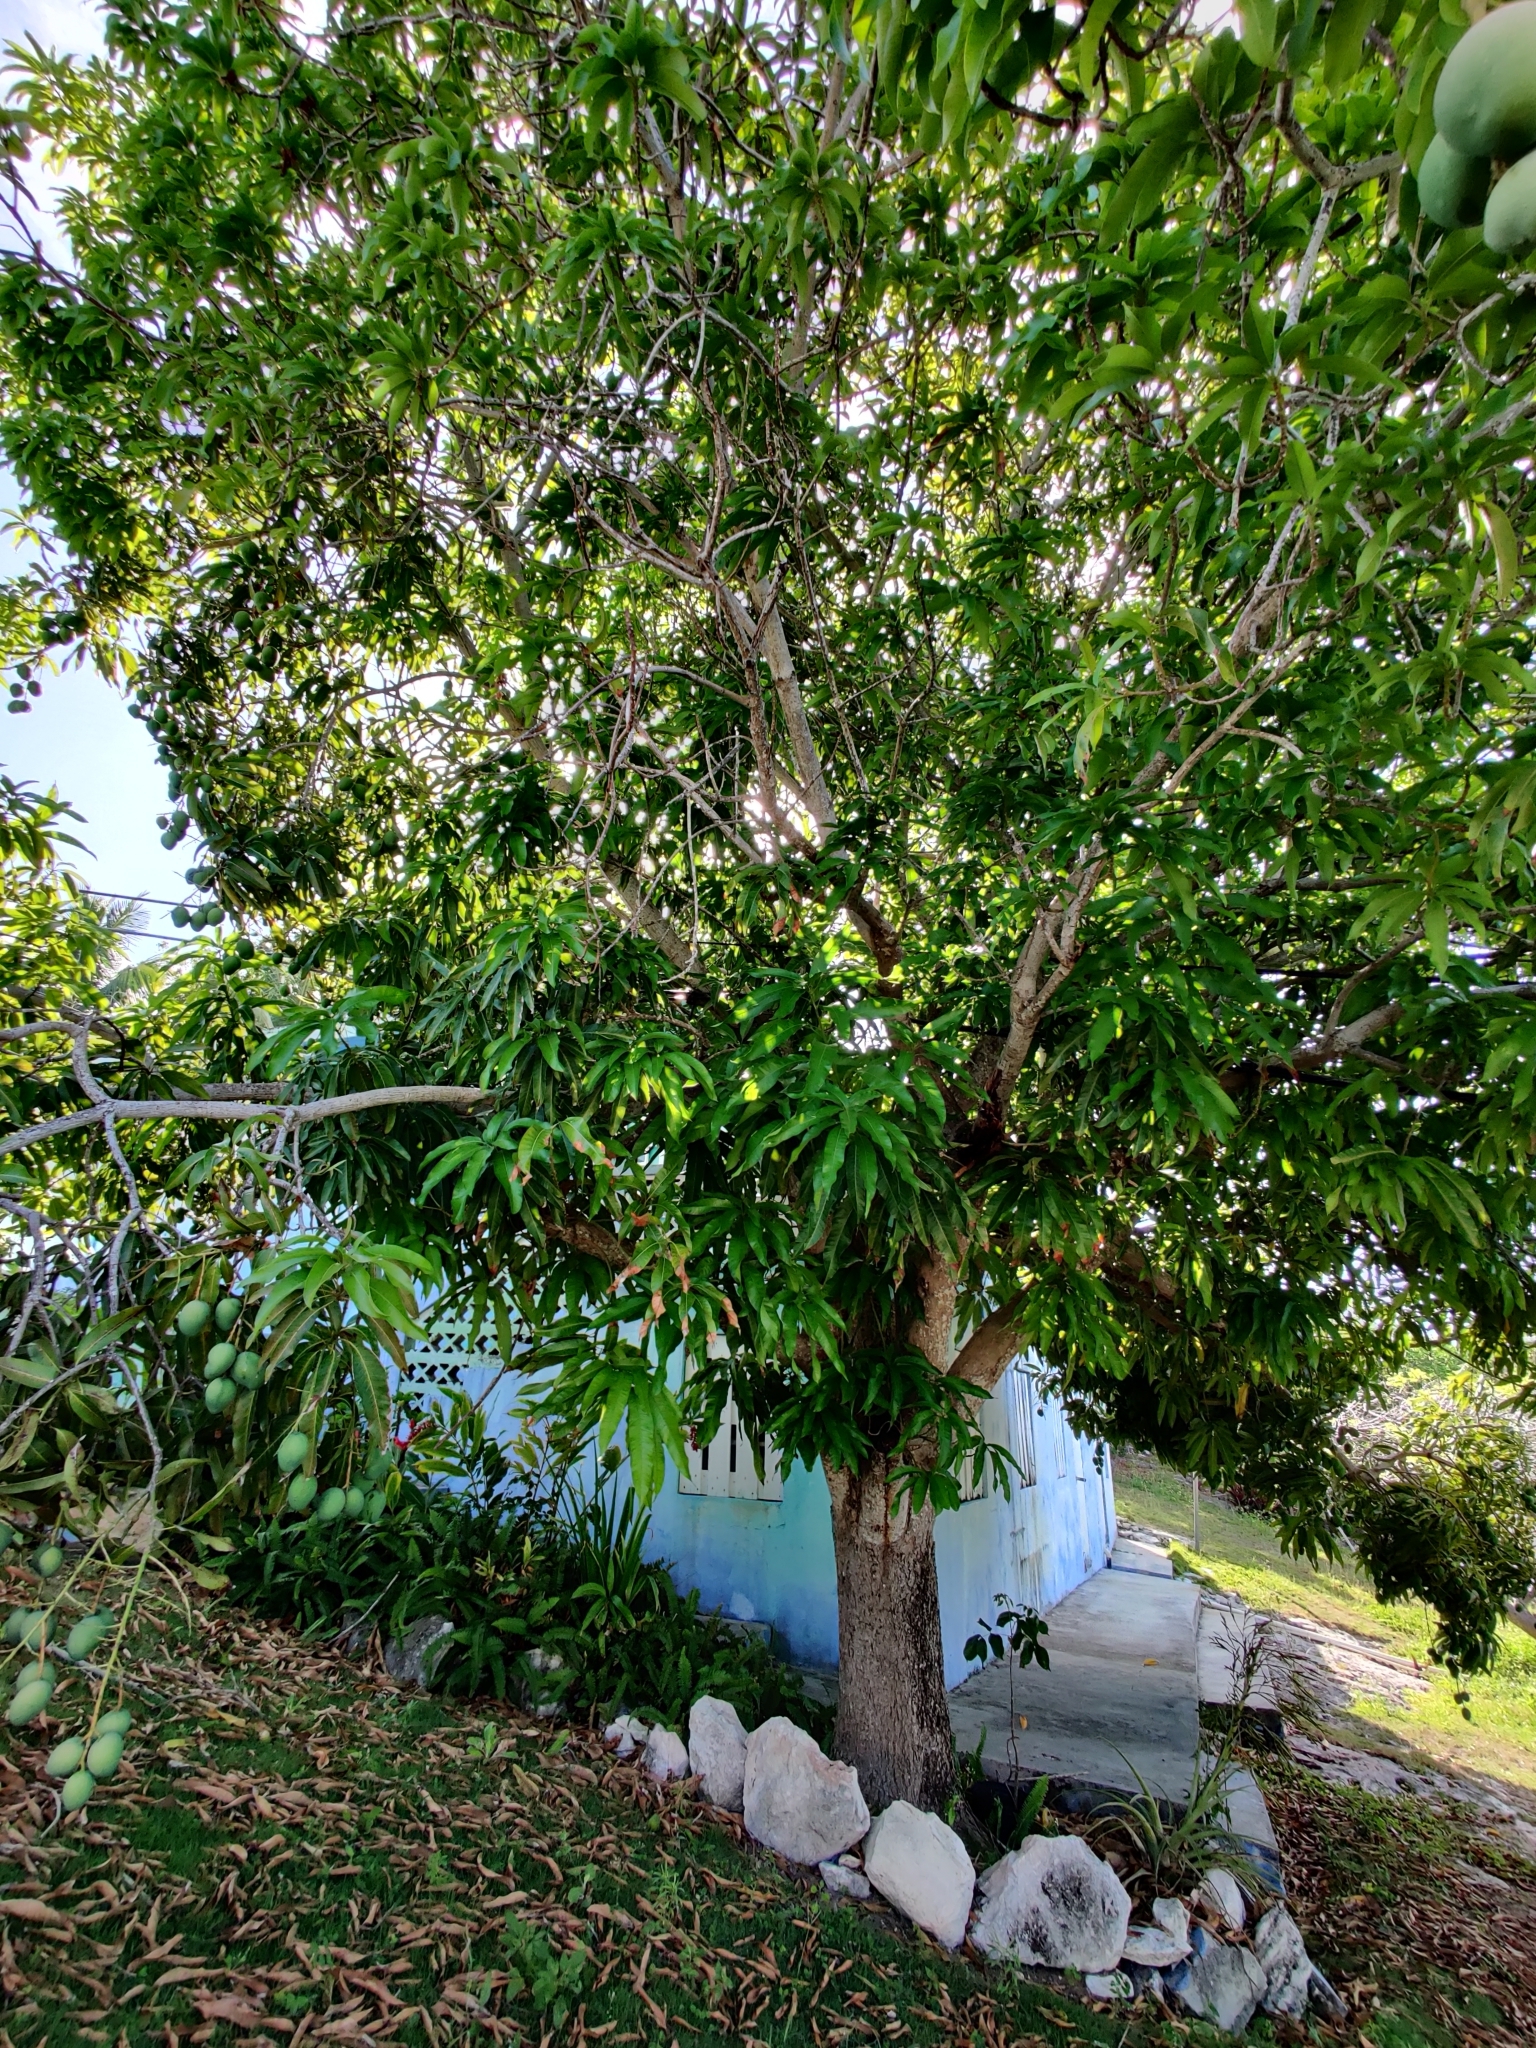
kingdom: Plantae
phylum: Tracheophyta
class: Magnoliopsida
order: Sapindales
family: Anacardiaceae
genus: Mangifera
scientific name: Mangifera indica
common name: Mango
